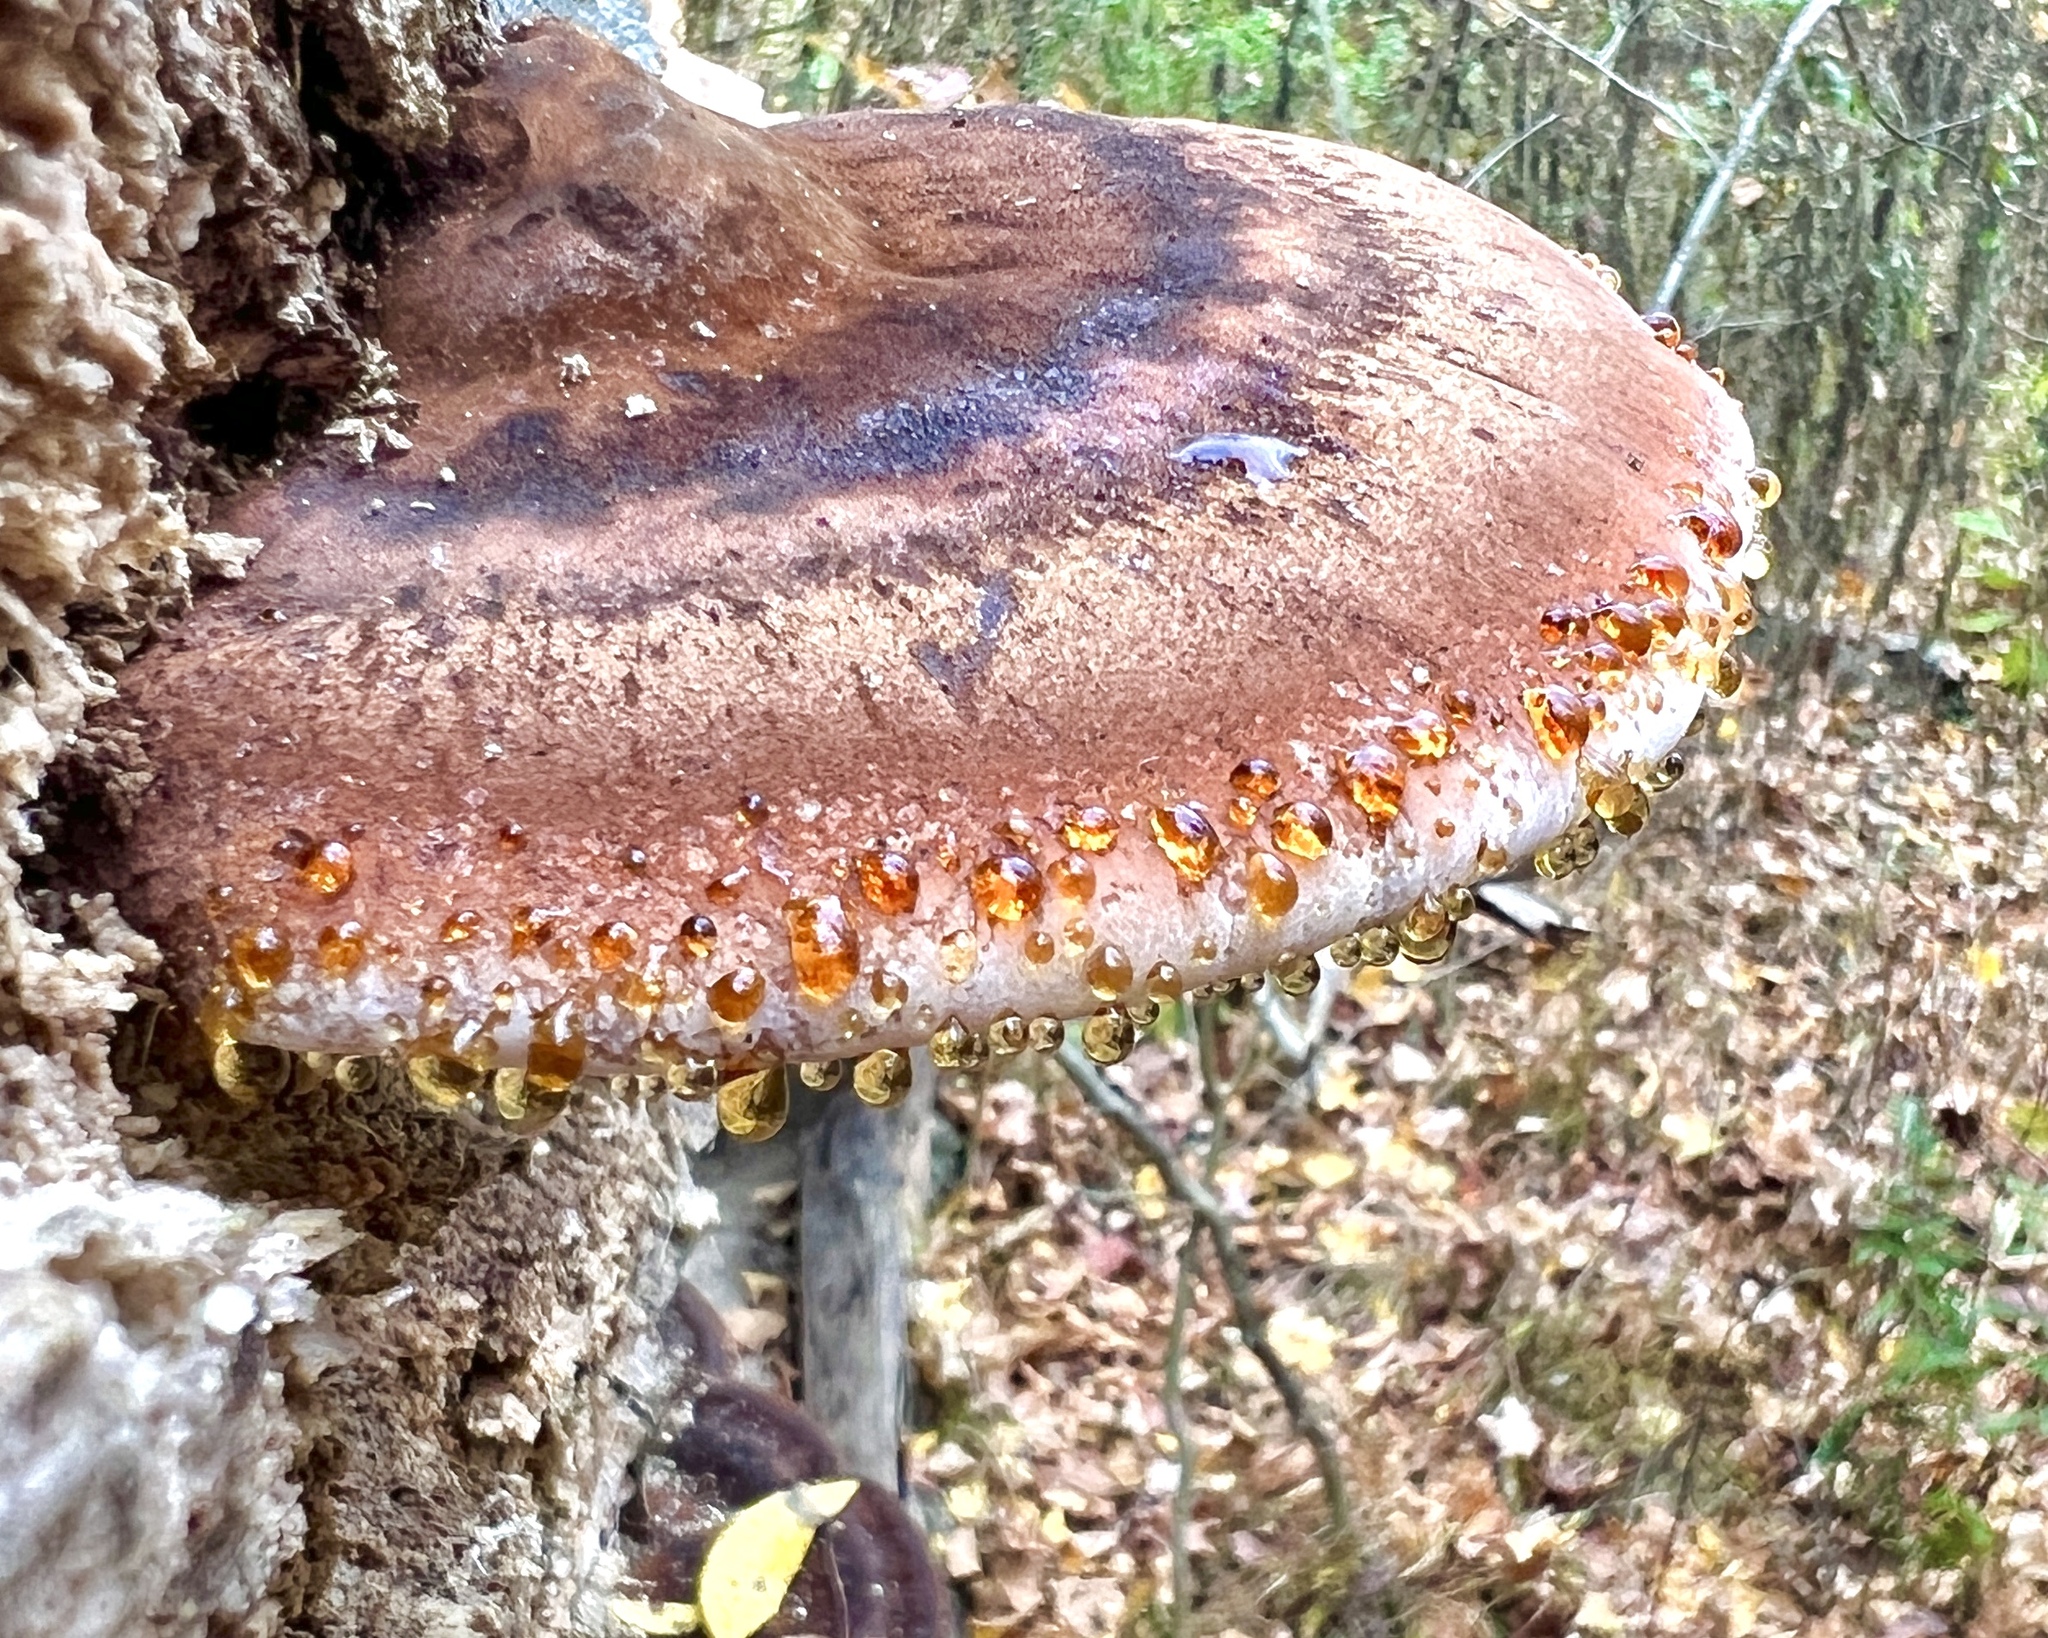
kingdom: Fungi
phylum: Basidiomycota
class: Agaricomycetes
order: Polyporales
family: Ischnodermataceae
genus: Ischnoderma
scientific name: Ischnoderma resinosum
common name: Resinous polypore
